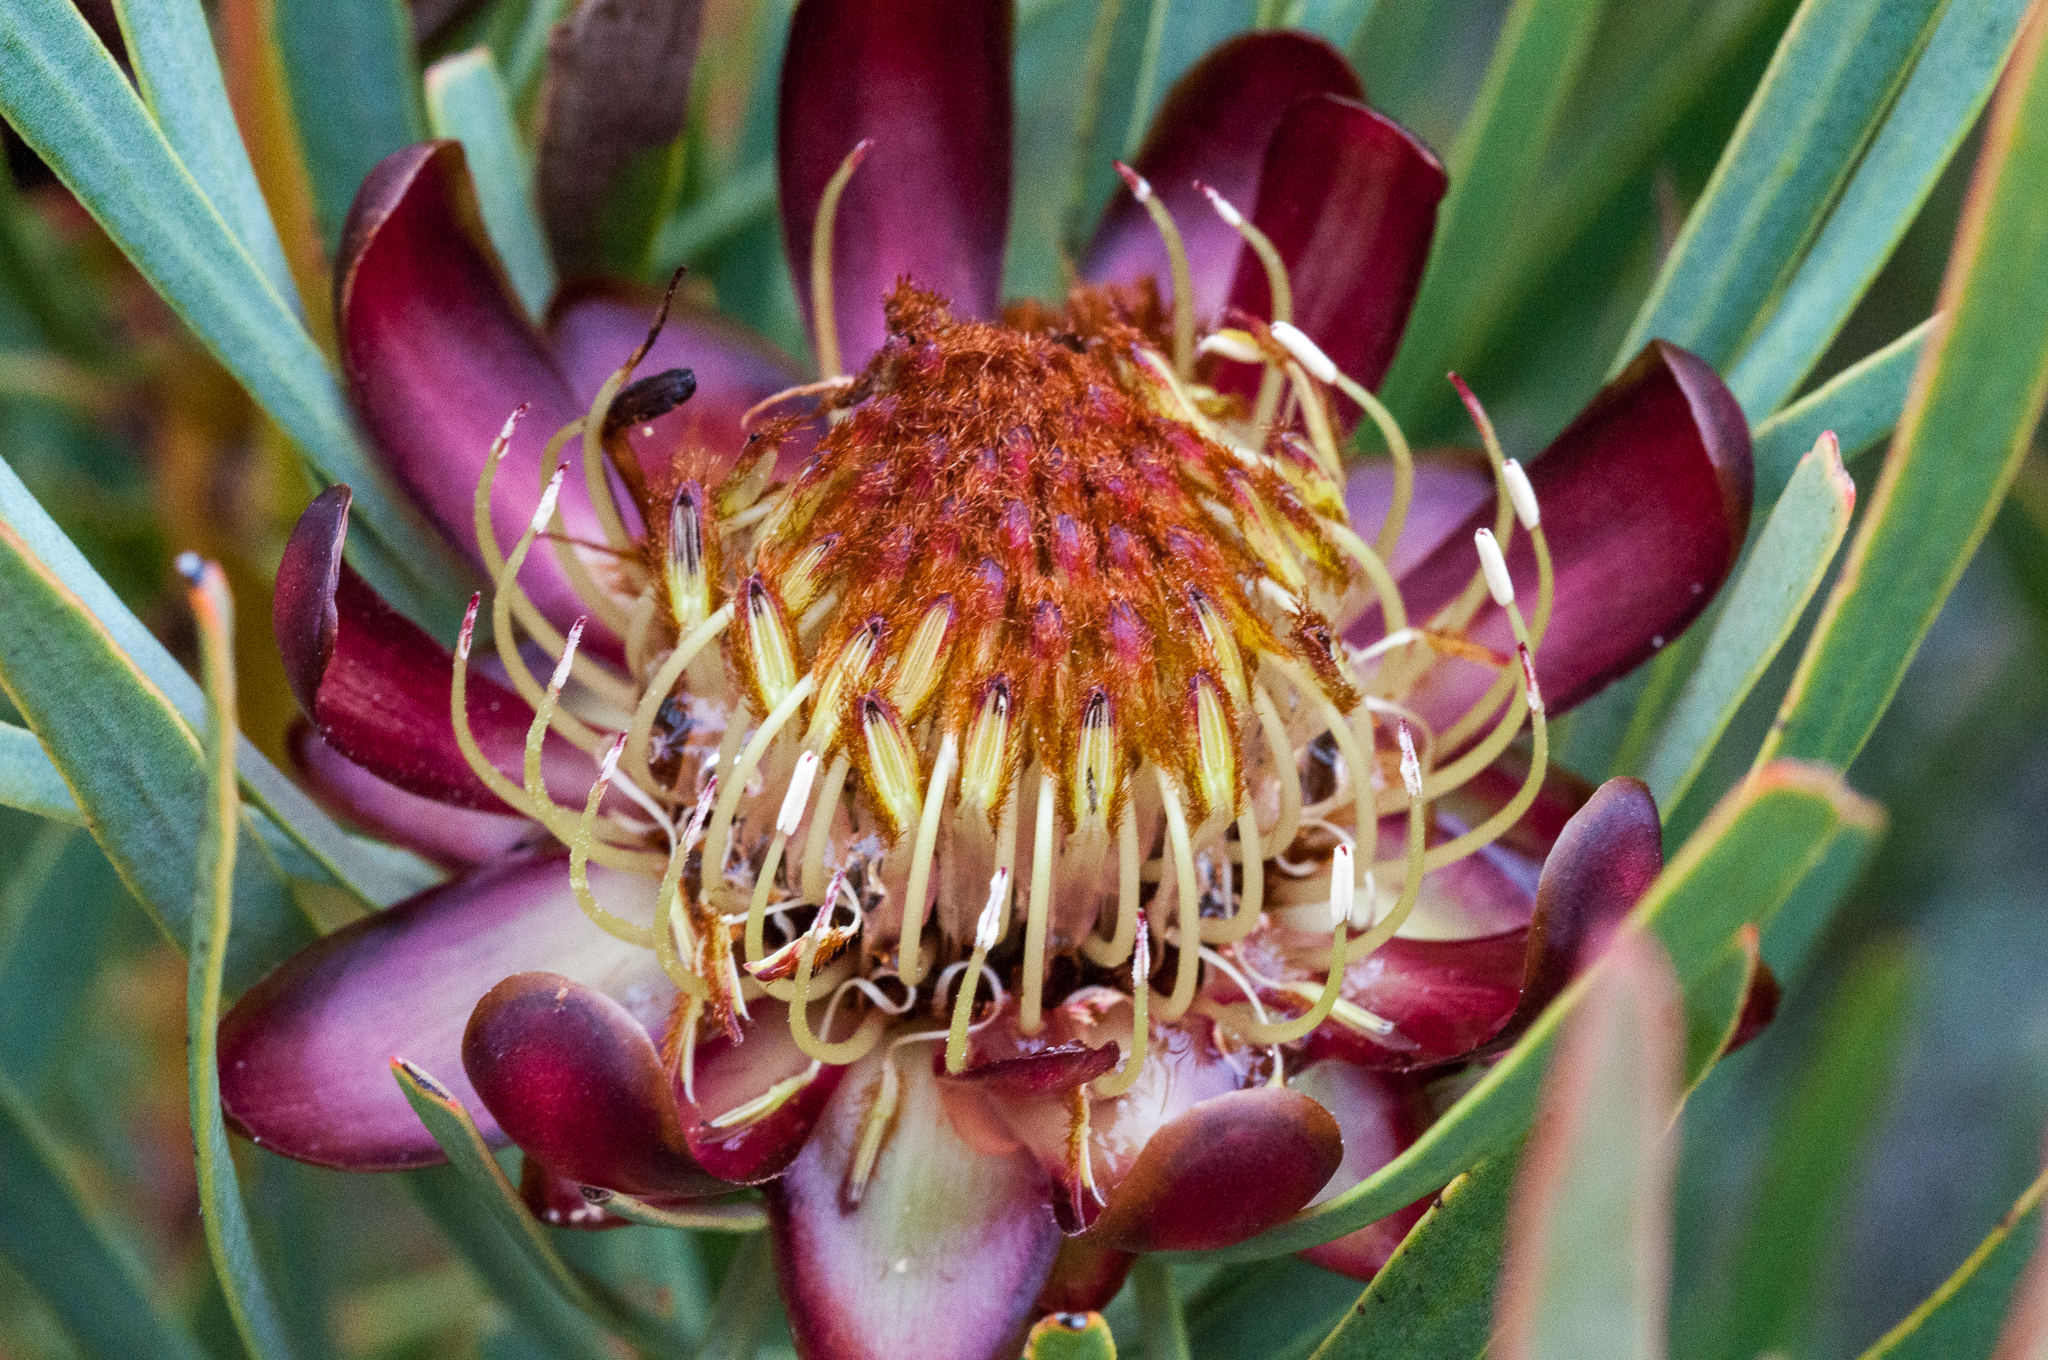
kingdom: Plantae
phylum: Tracheophyta
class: Magnoliopsida
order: Proteales
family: Proteaceae
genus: Protea
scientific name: Protea acuminata
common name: Black-rim sugarbush
